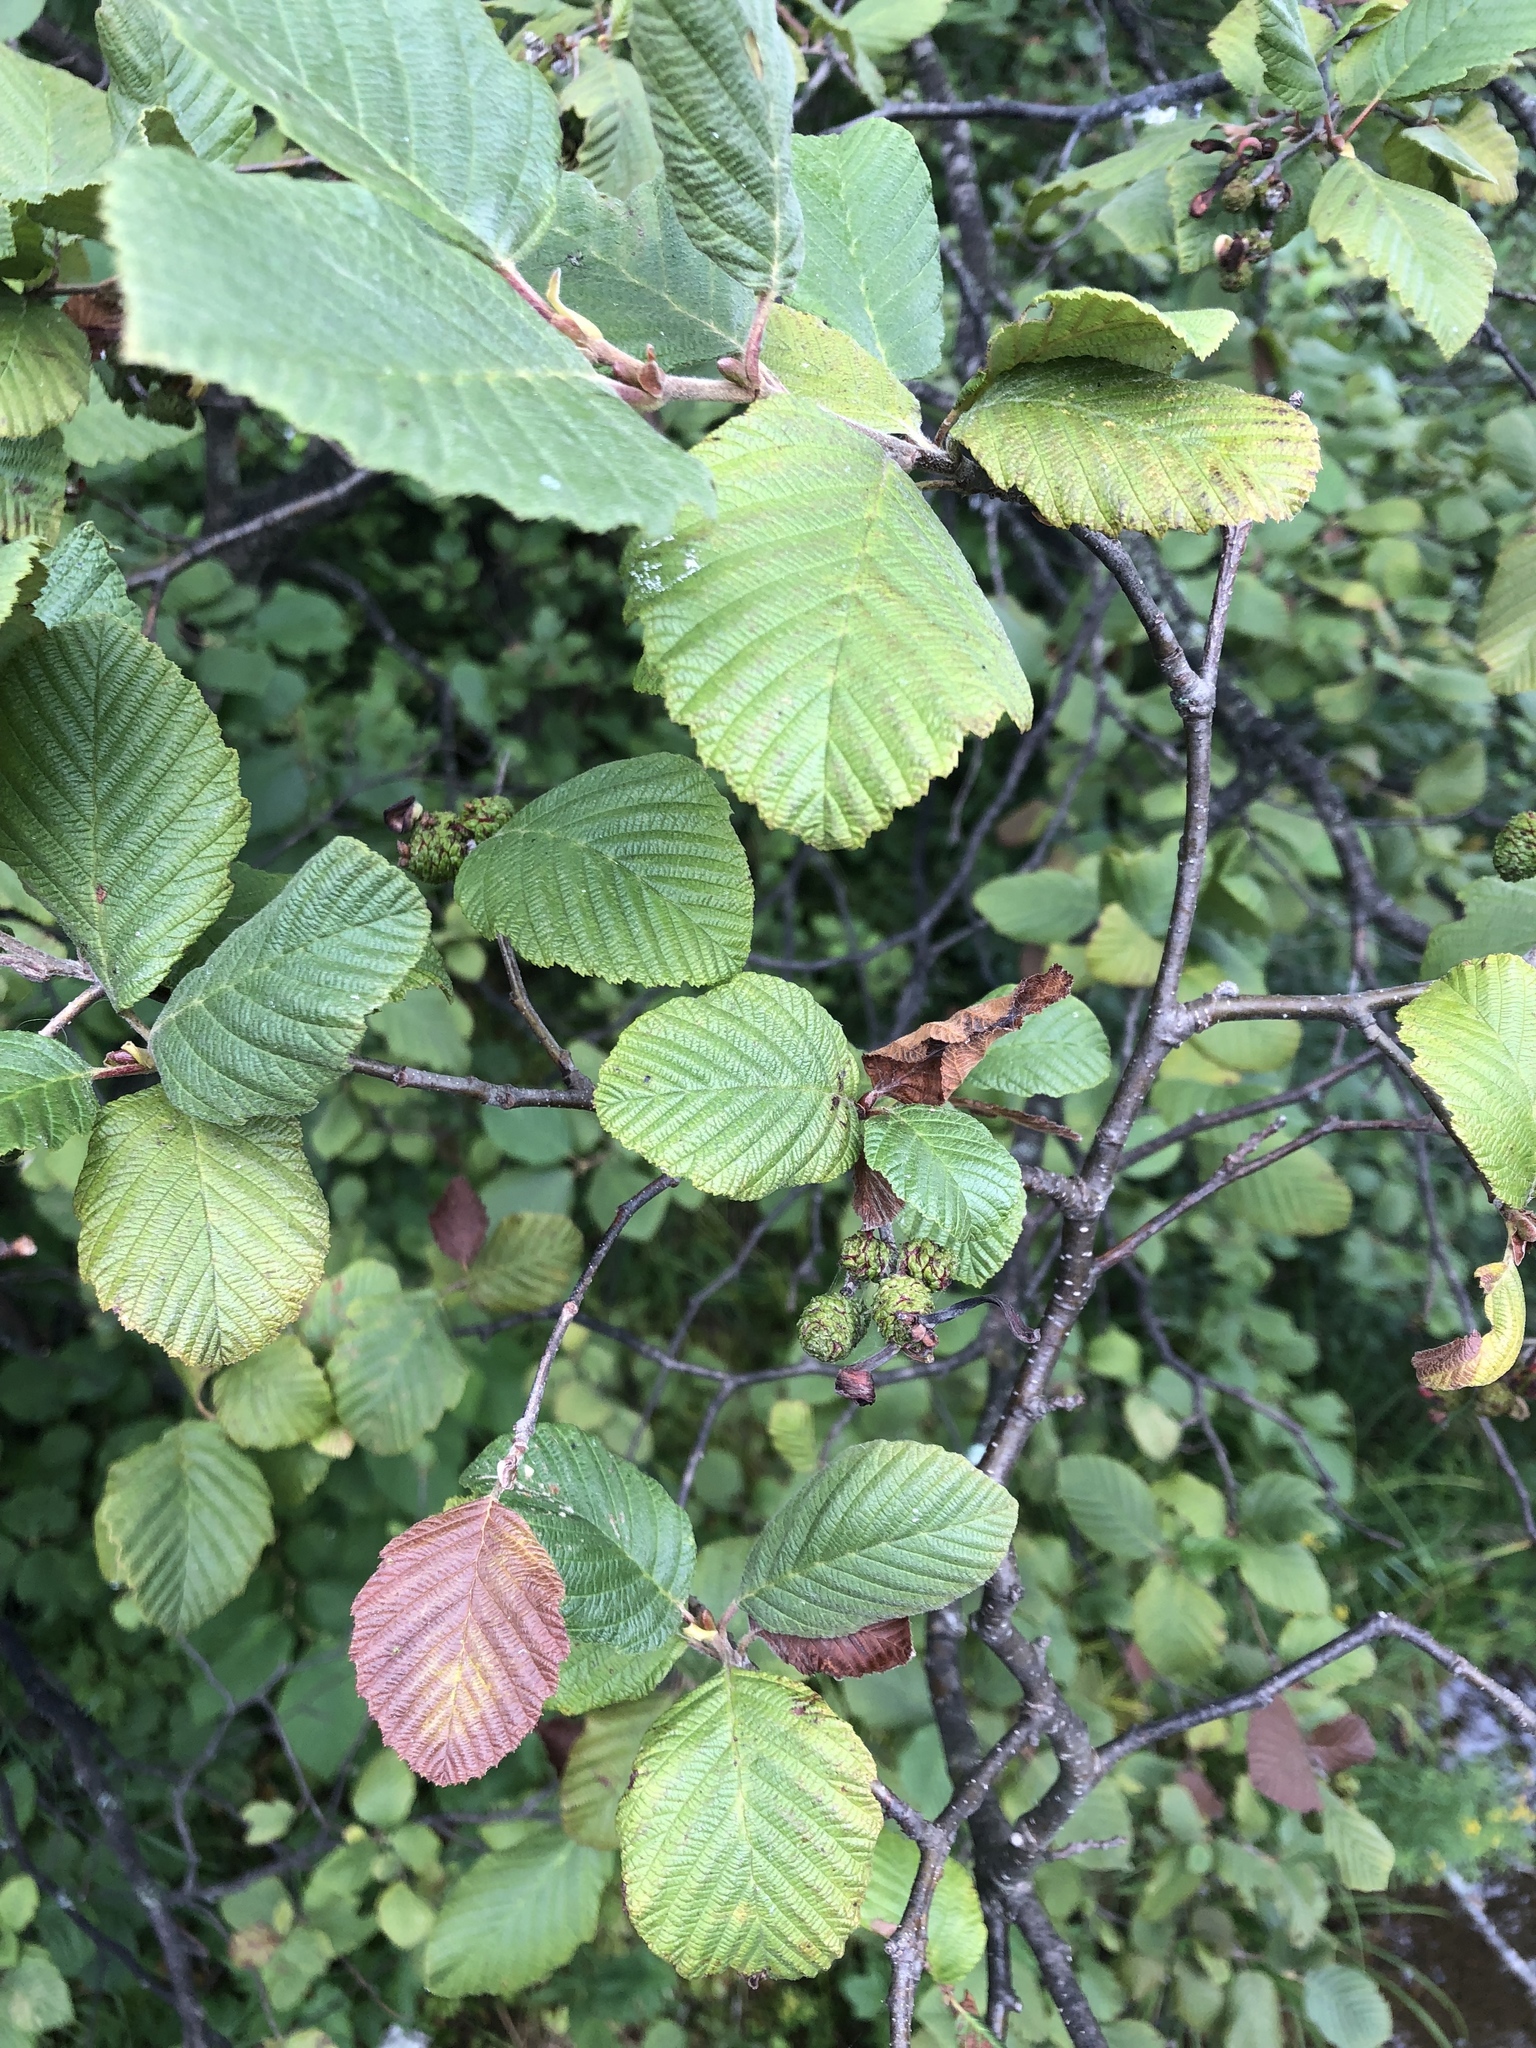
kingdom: Plantae
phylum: Tracheophyta
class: Magnoliopsida
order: Fagales
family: Betulaceae
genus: Alnus
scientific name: Alnus incana
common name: Grey alder
